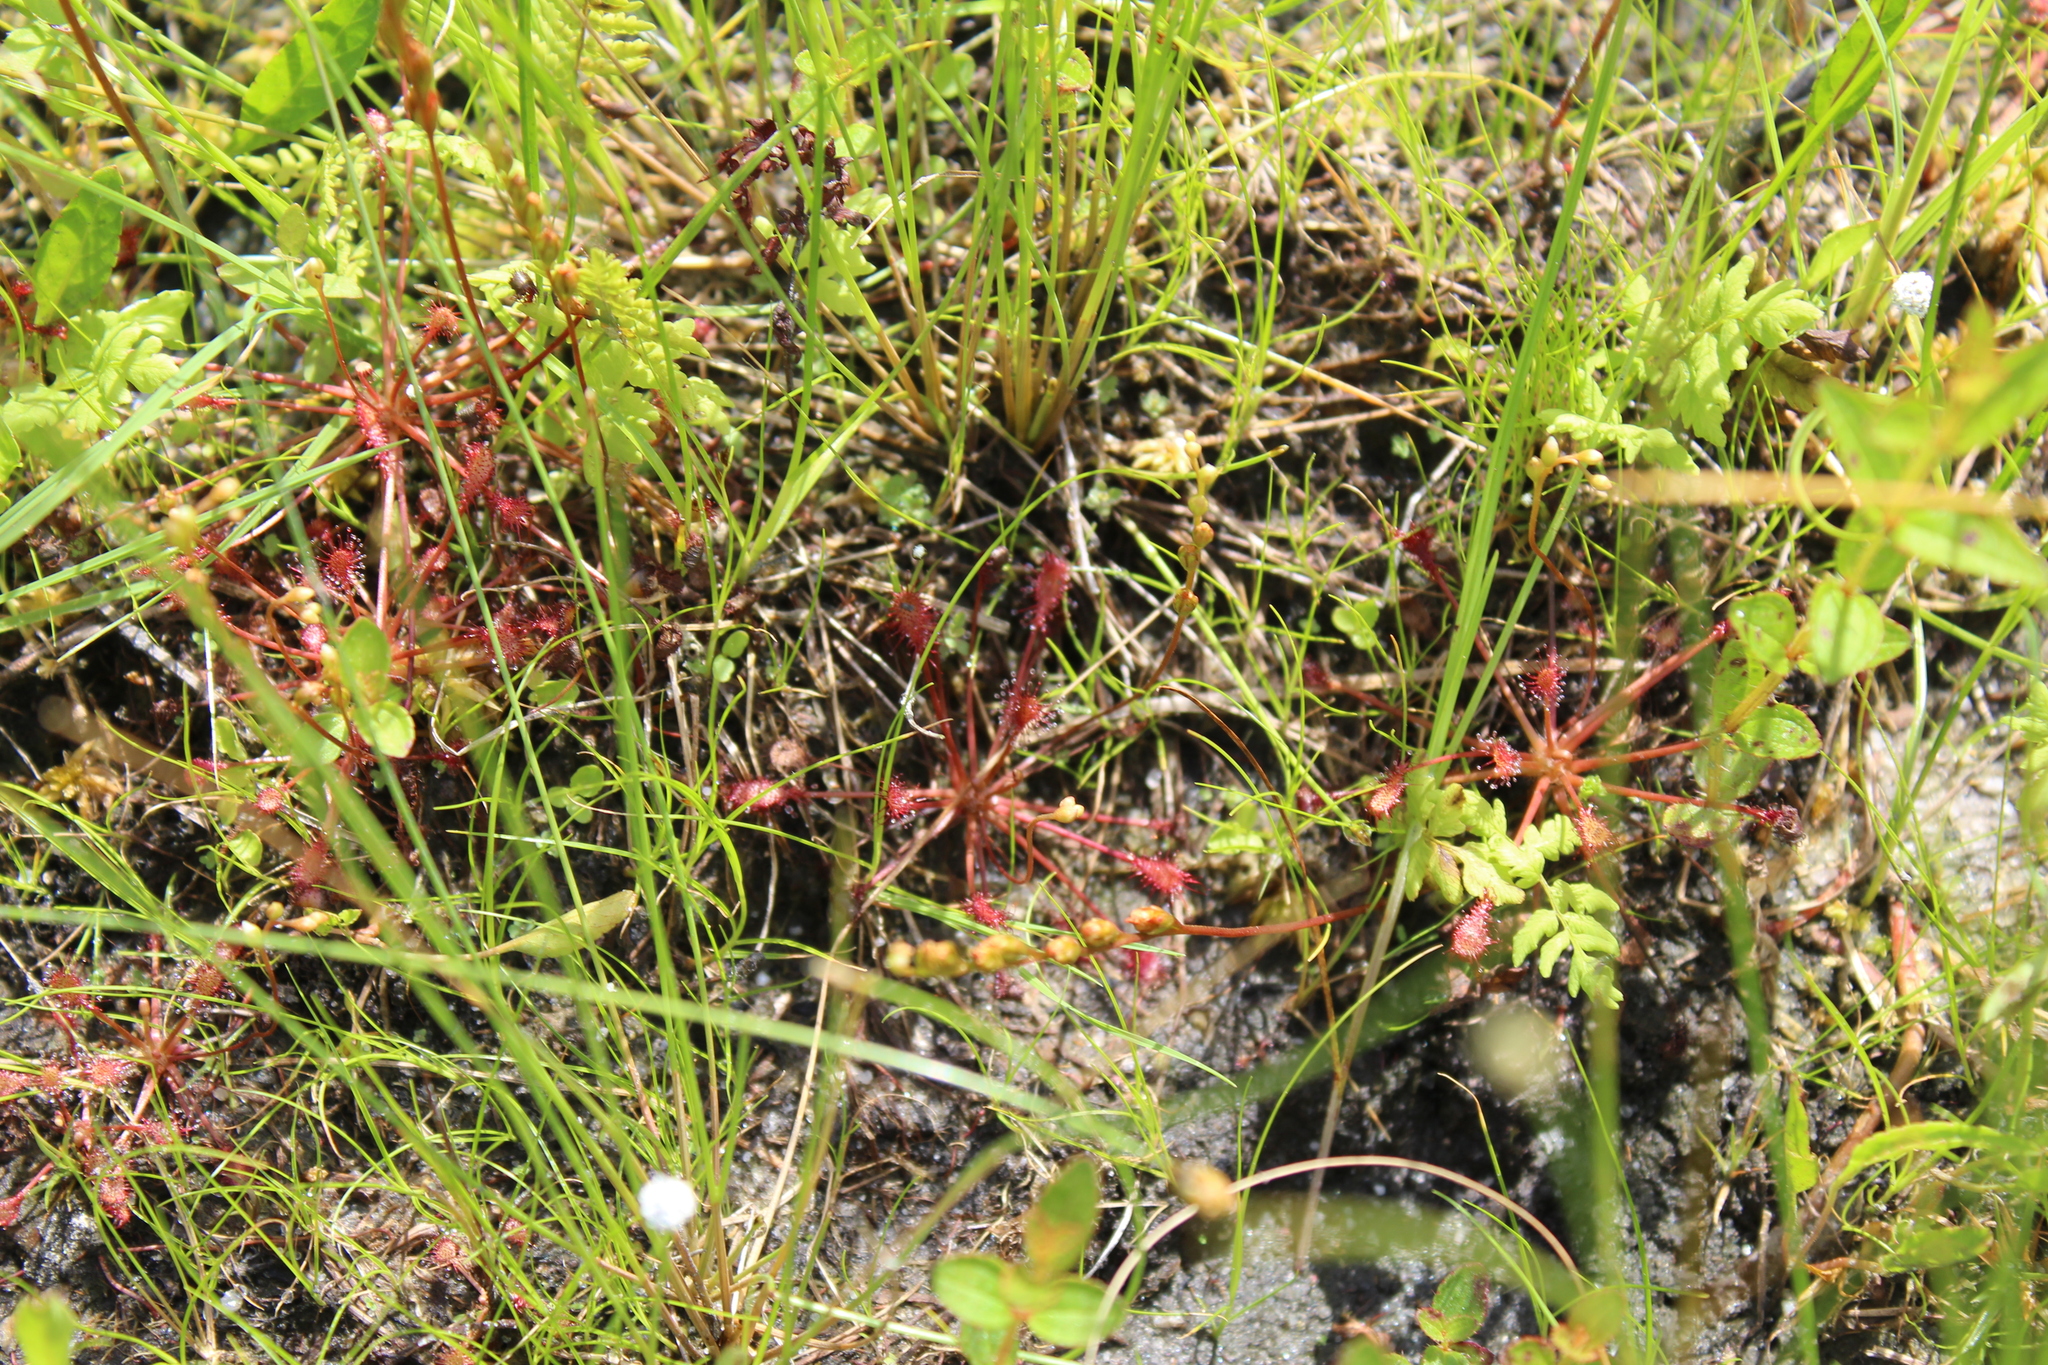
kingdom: Plantae
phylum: Tracheophyta
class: Magnoliopsida
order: Caryophyllales
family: Droseraceae
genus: Drosera
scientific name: Drosera intermedia
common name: Oblong-leaved sundew
